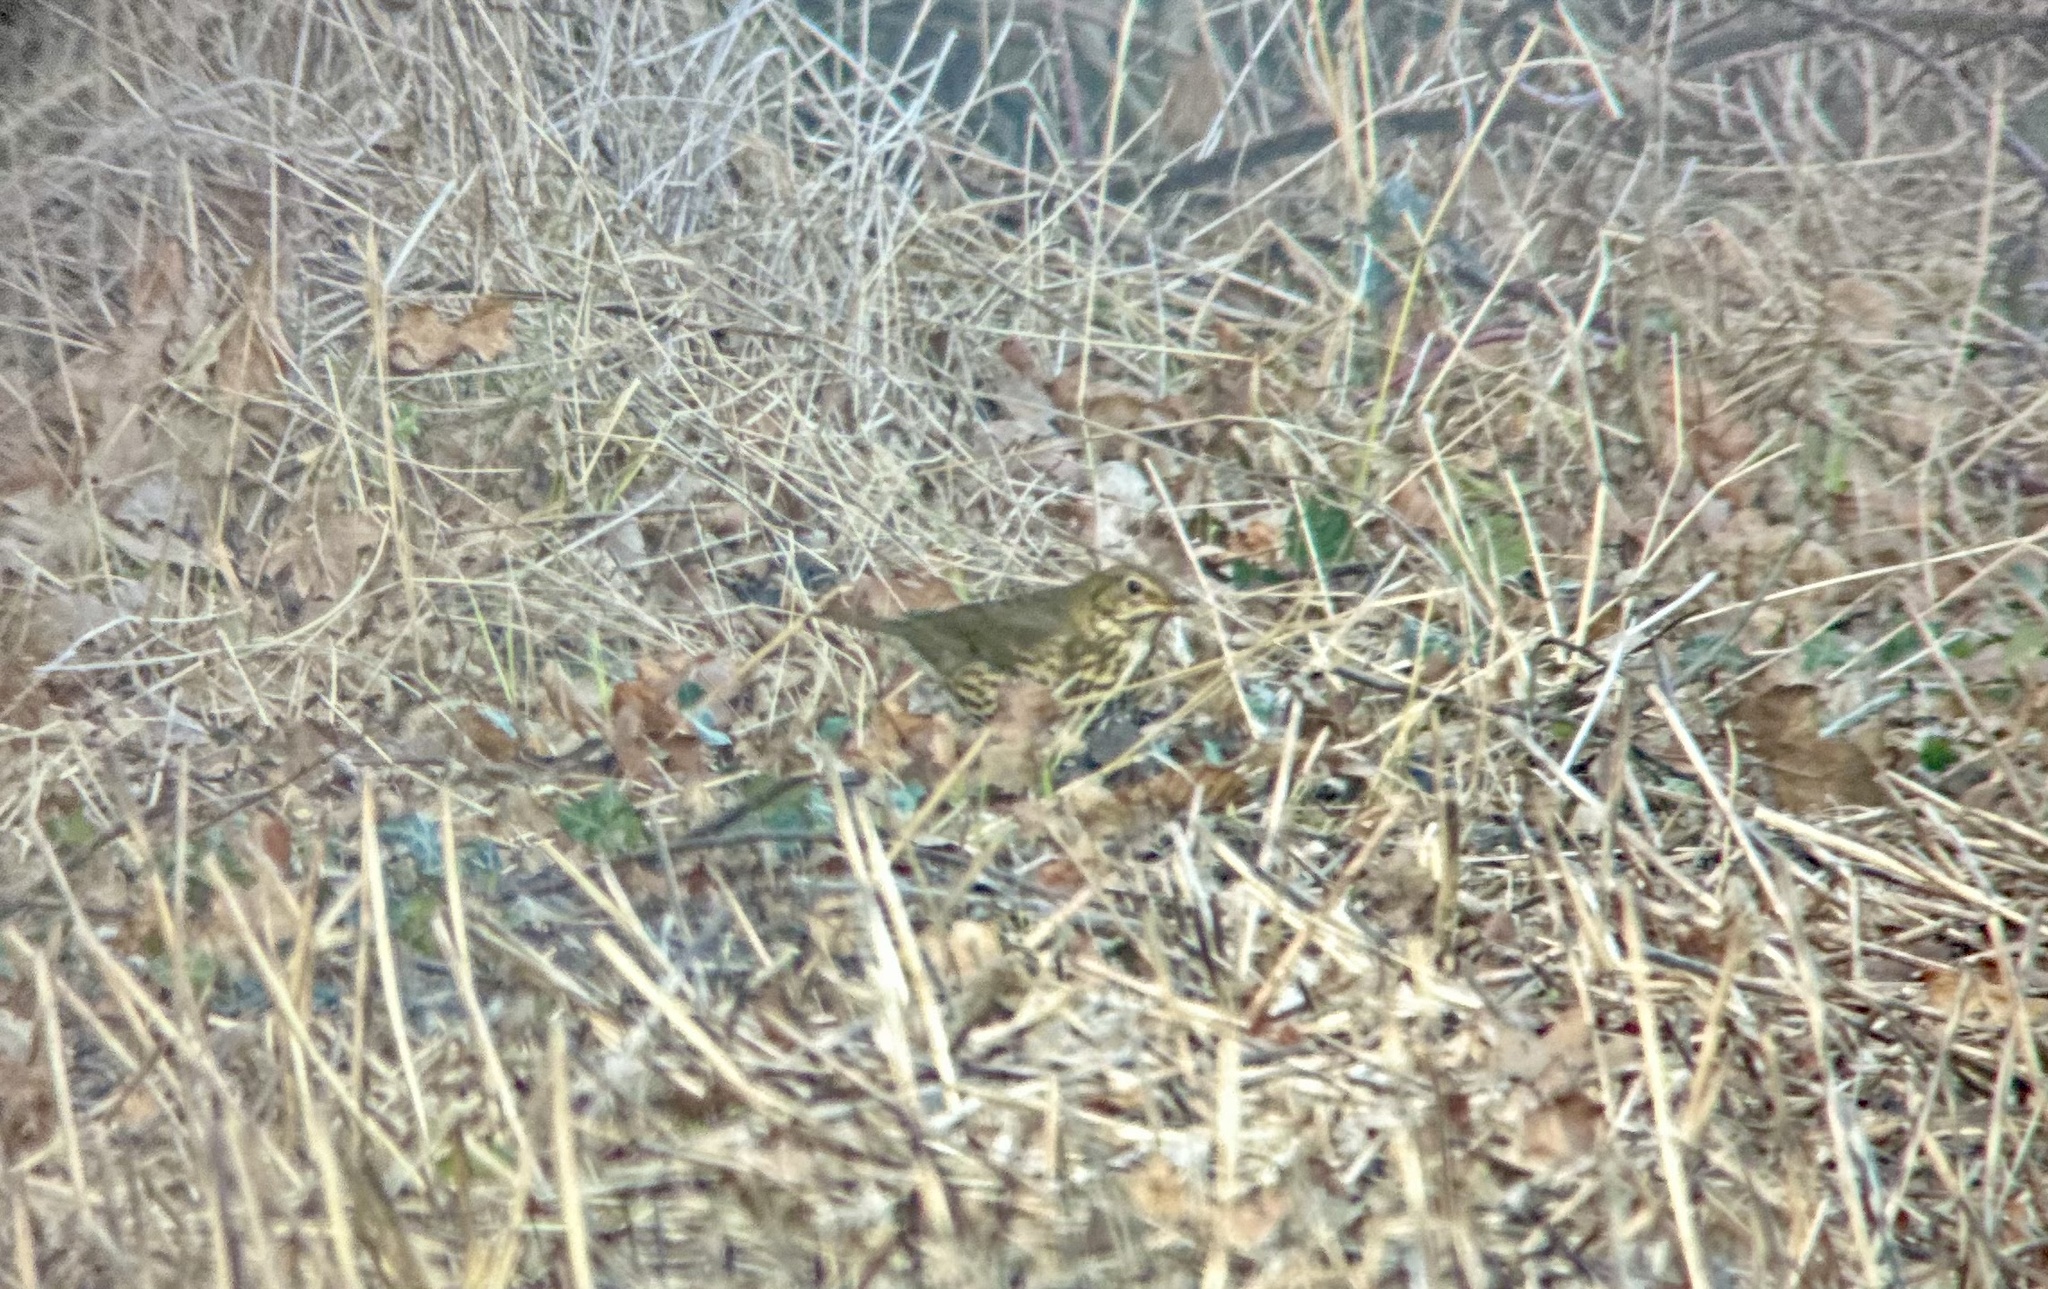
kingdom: Animalia
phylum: Chordata
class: Aves
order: Passeriformes
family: Turdidae
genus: Turdus
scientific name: Turdus philomelos
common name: Song thrush
